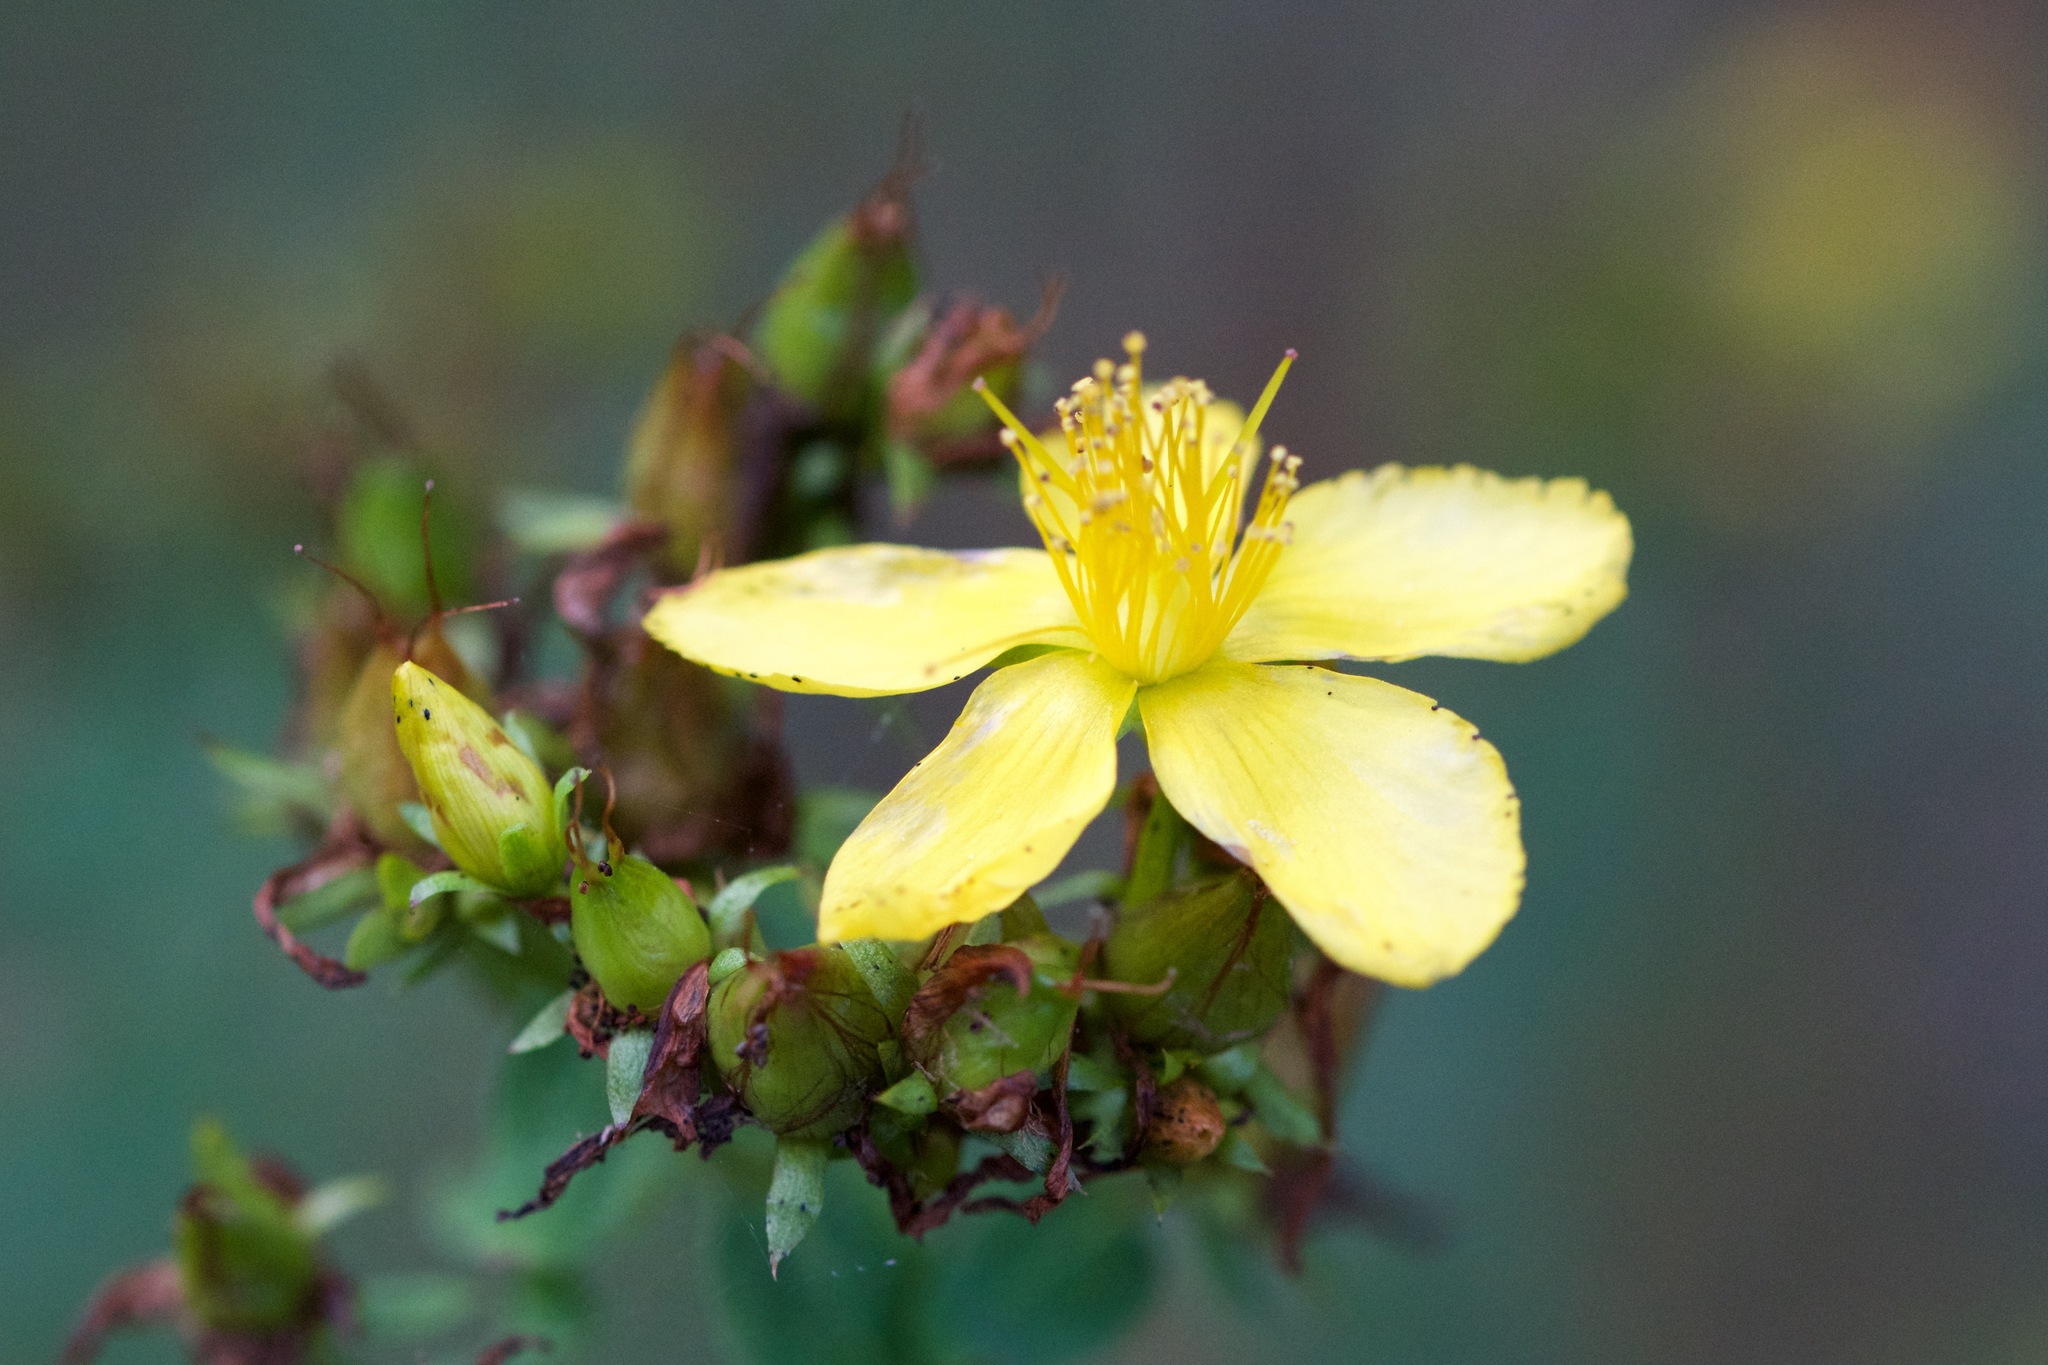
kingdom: Plantae
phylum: Tracheophyta
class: Magnoliopsida
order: Malpighiales
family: Hypericaceae
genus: Hypericum
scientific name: Hypericum perforatum
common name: Common st. johnswort
